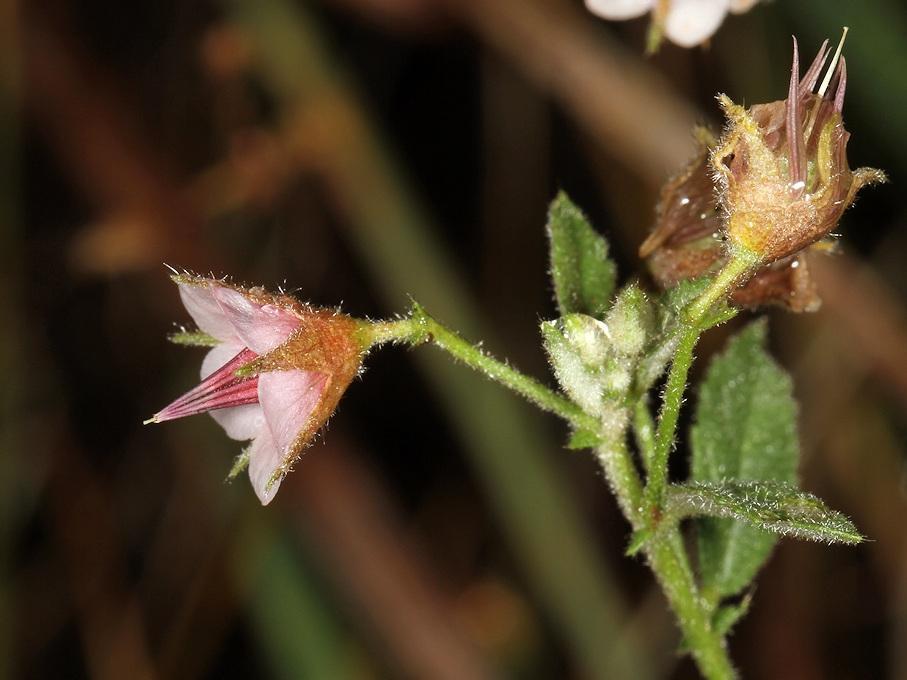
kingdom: Plantae
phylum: Tracheophyta
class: Magnoliopsida
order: Malvales
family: Malvaceae
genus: Hermannia
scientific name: Hermannia boraginiflora
